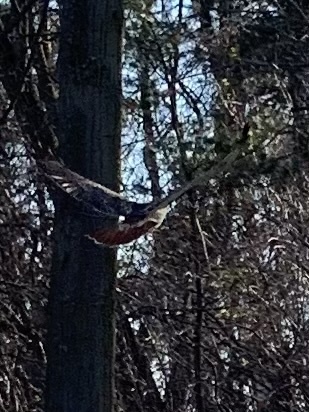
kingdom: Animalia
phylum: Chordata
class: Aves
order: Accipitriformes
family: Accipitridae
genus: Buteo
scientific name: Buteo jamaicensis
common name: Red-tailed hawk
